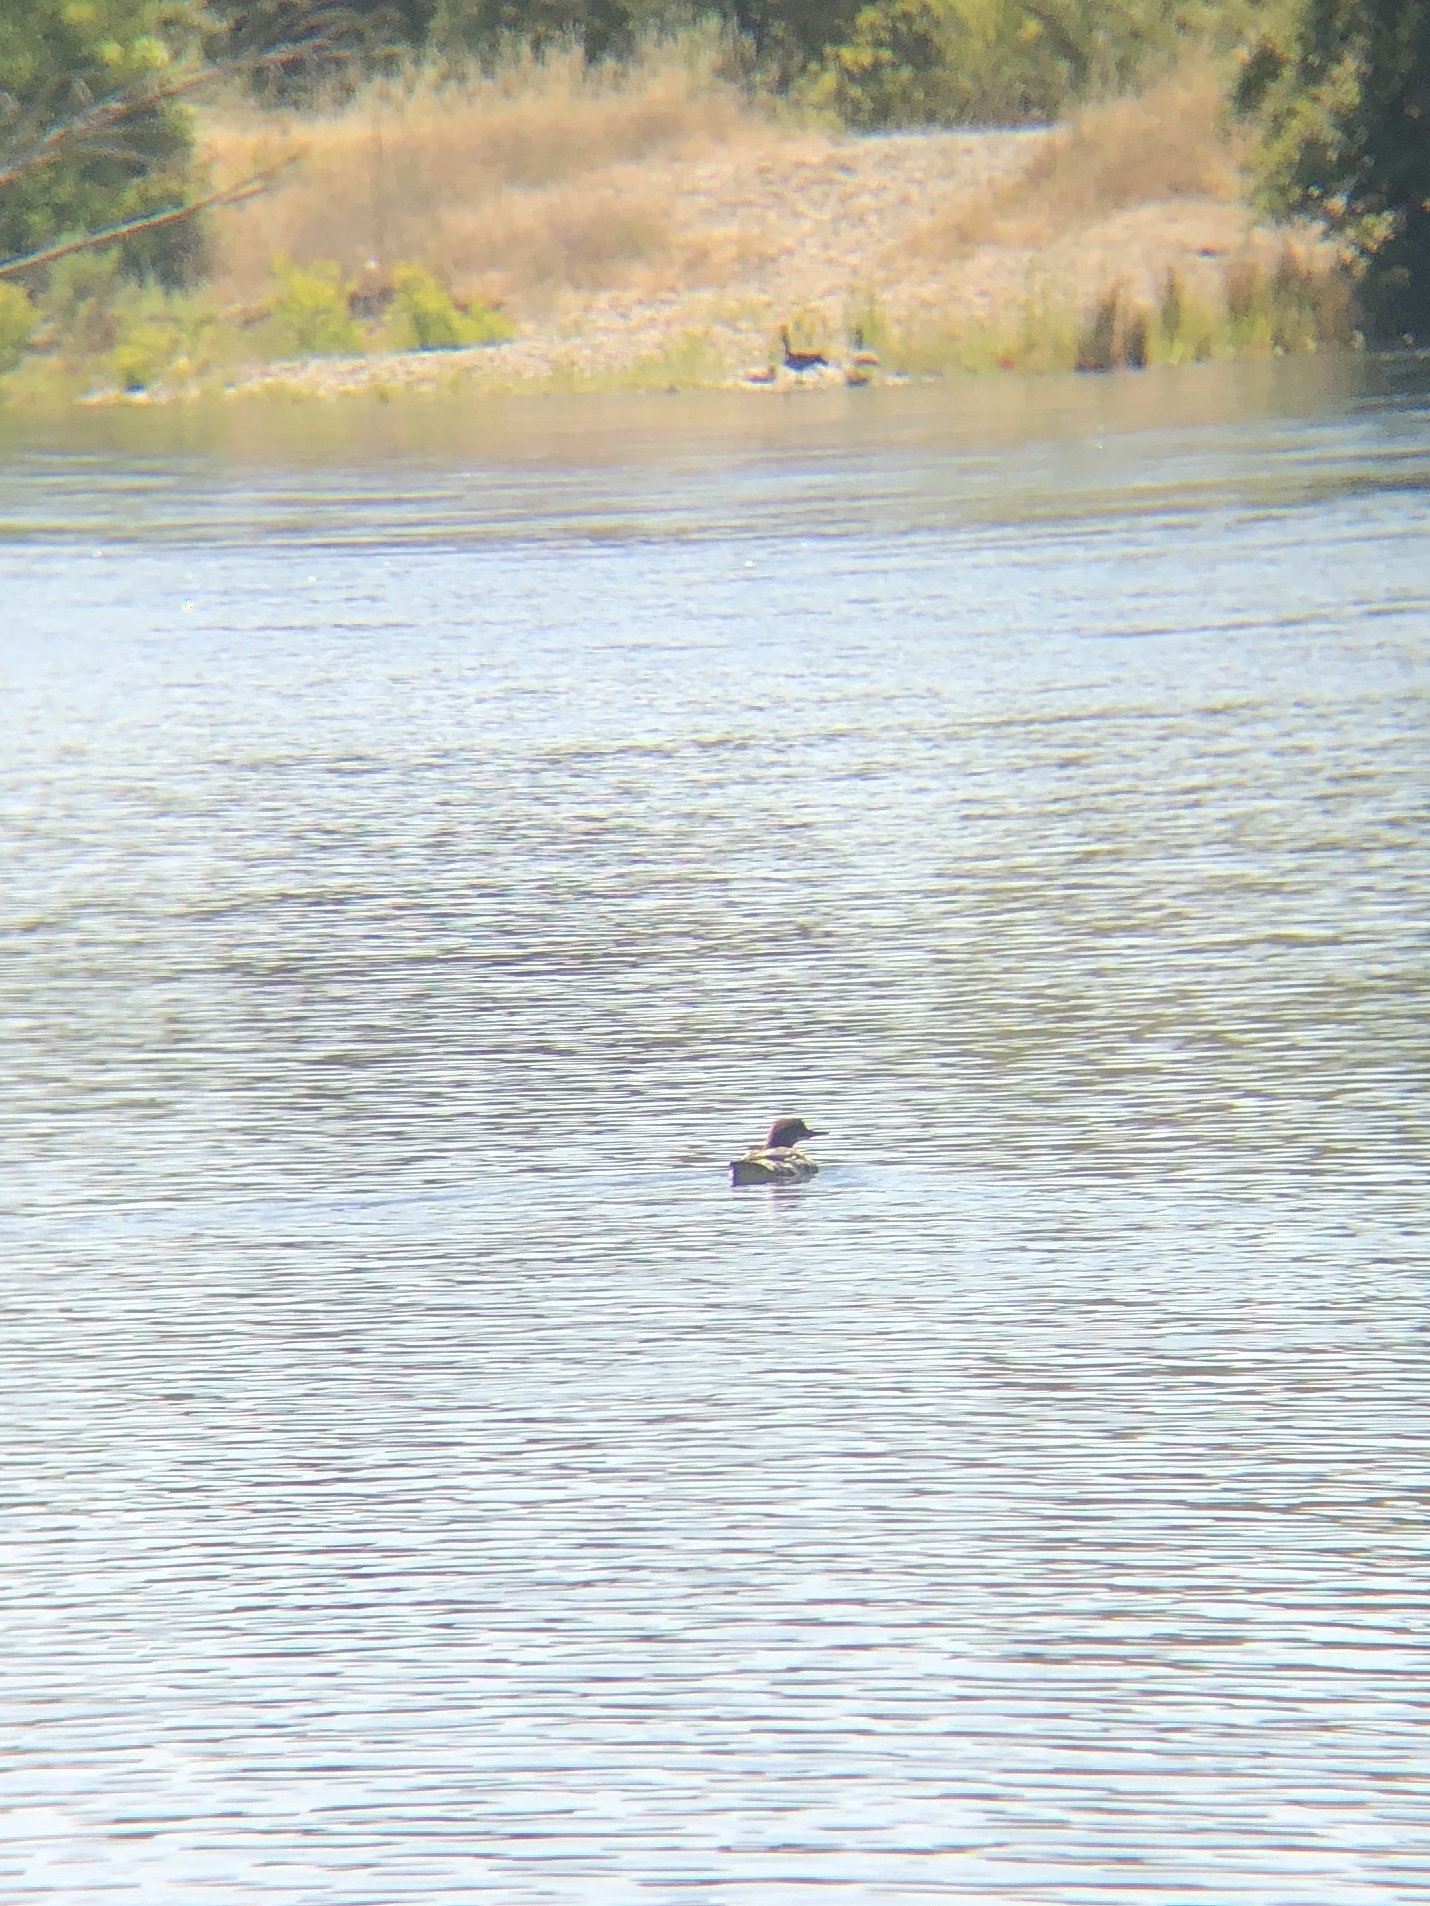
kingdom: Animalia
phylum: Chordata
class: Aves
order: Anseriformes
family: Anatidae
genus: Mergus
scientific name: Mergus merganser
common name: Common merganser
